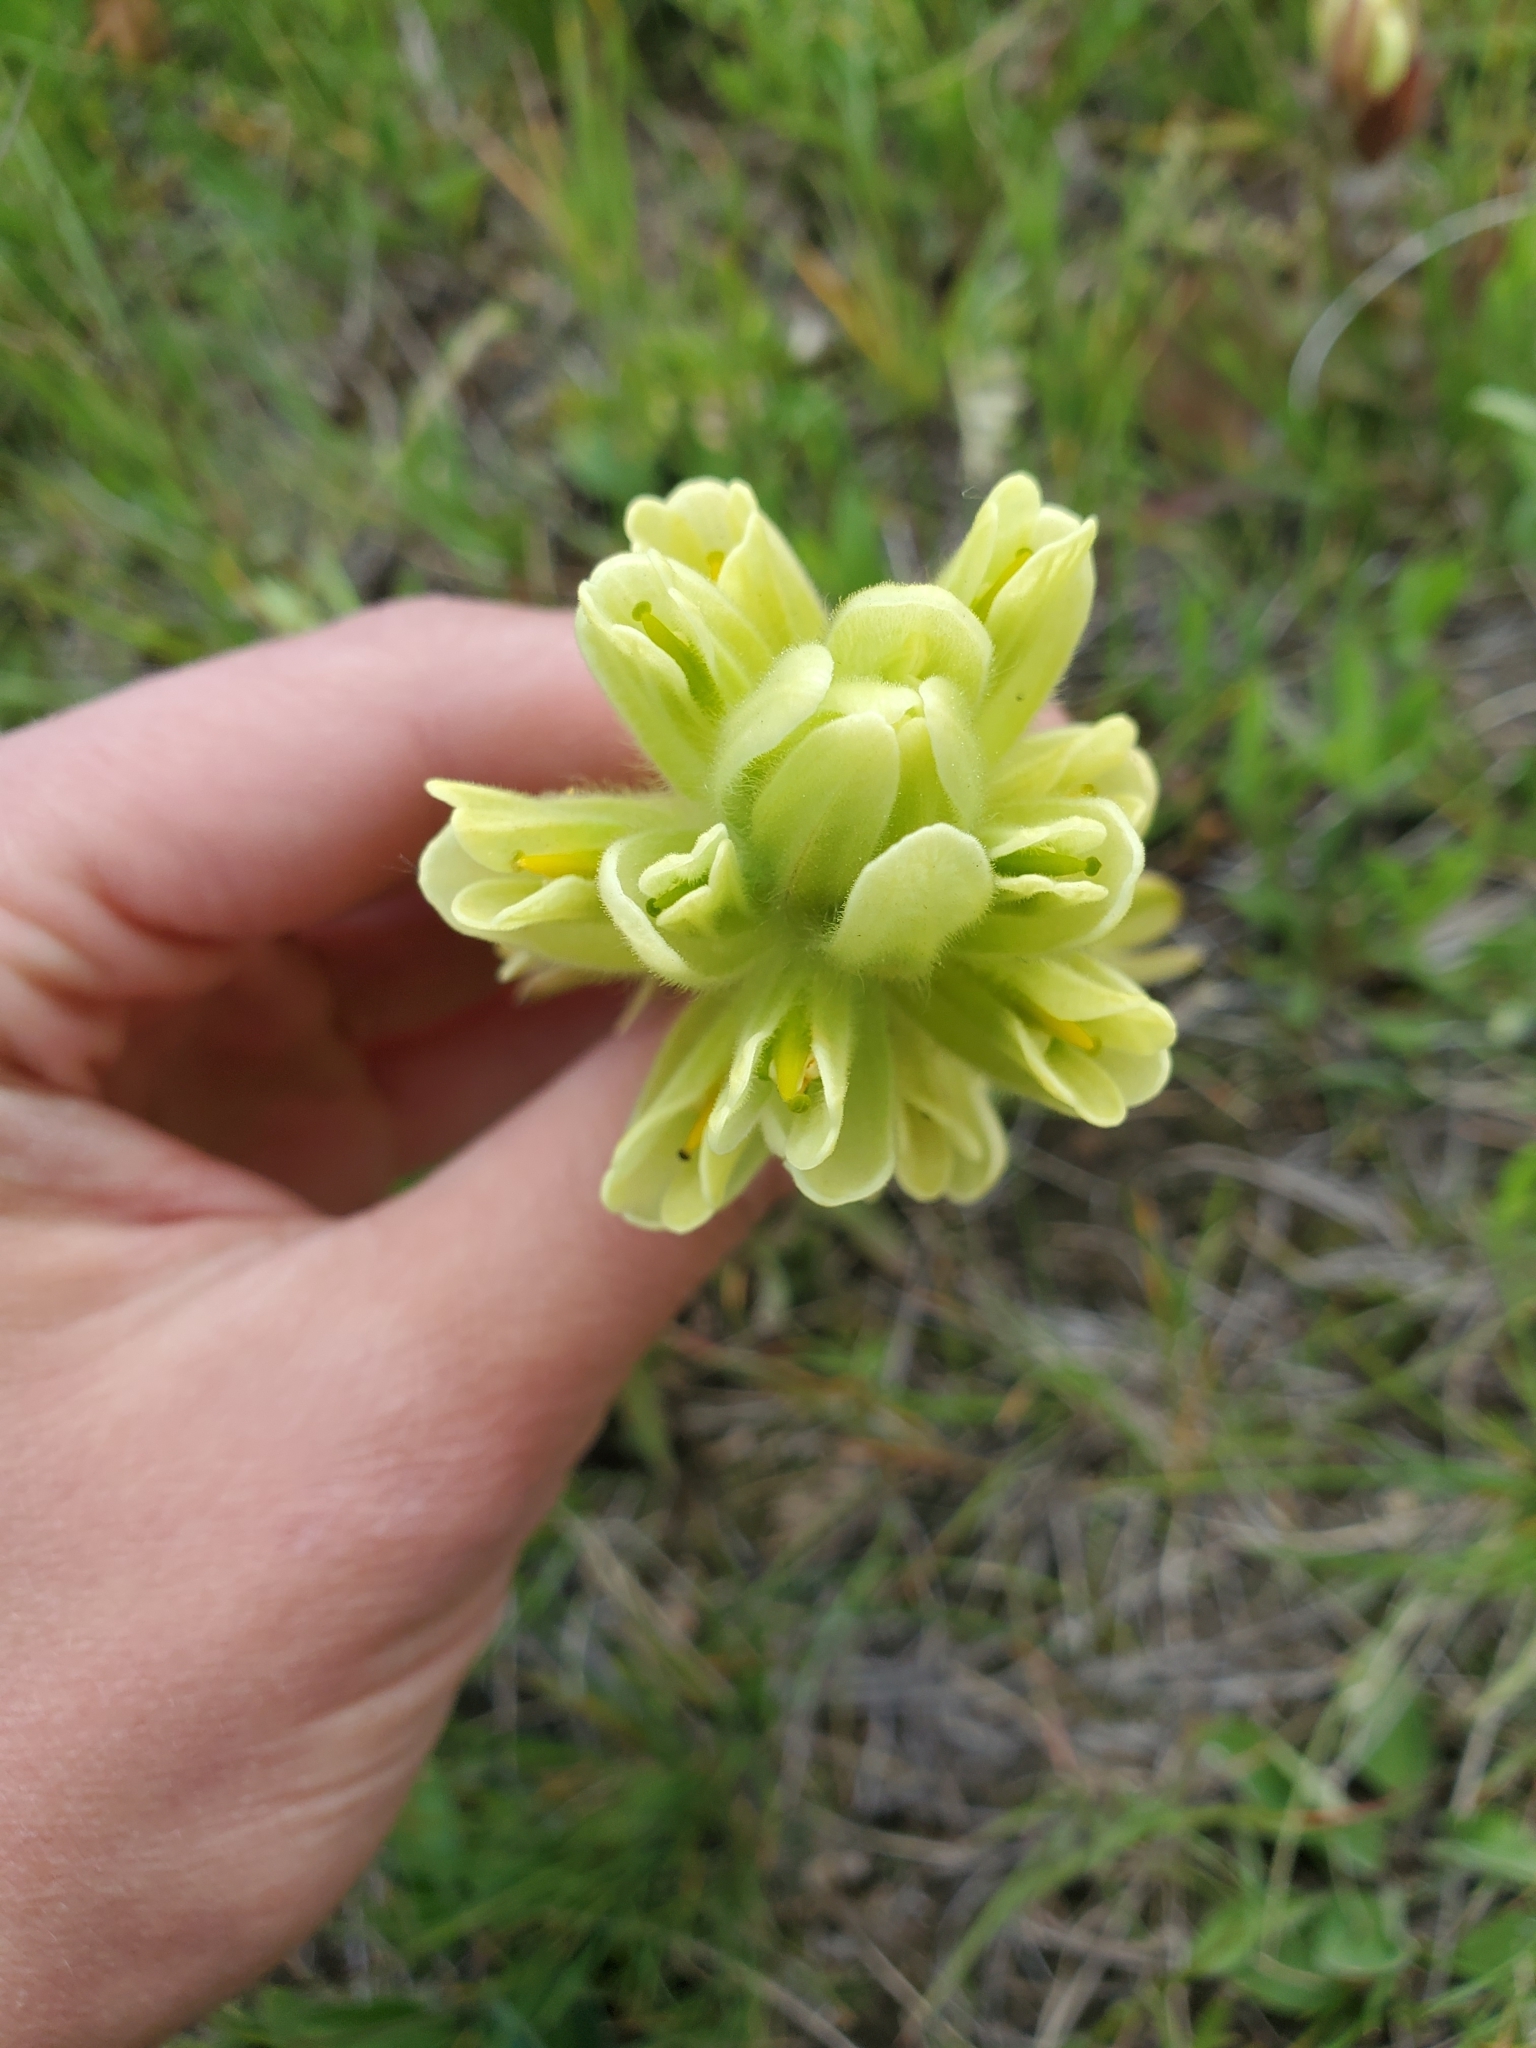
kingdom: Plantae
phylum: Tracheophyta
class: Magnoliopsida
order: Lamiales
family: Orobanchaceae
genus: Castilleja
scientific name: Castilleja cusickii
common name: Cusick's paintbrush
